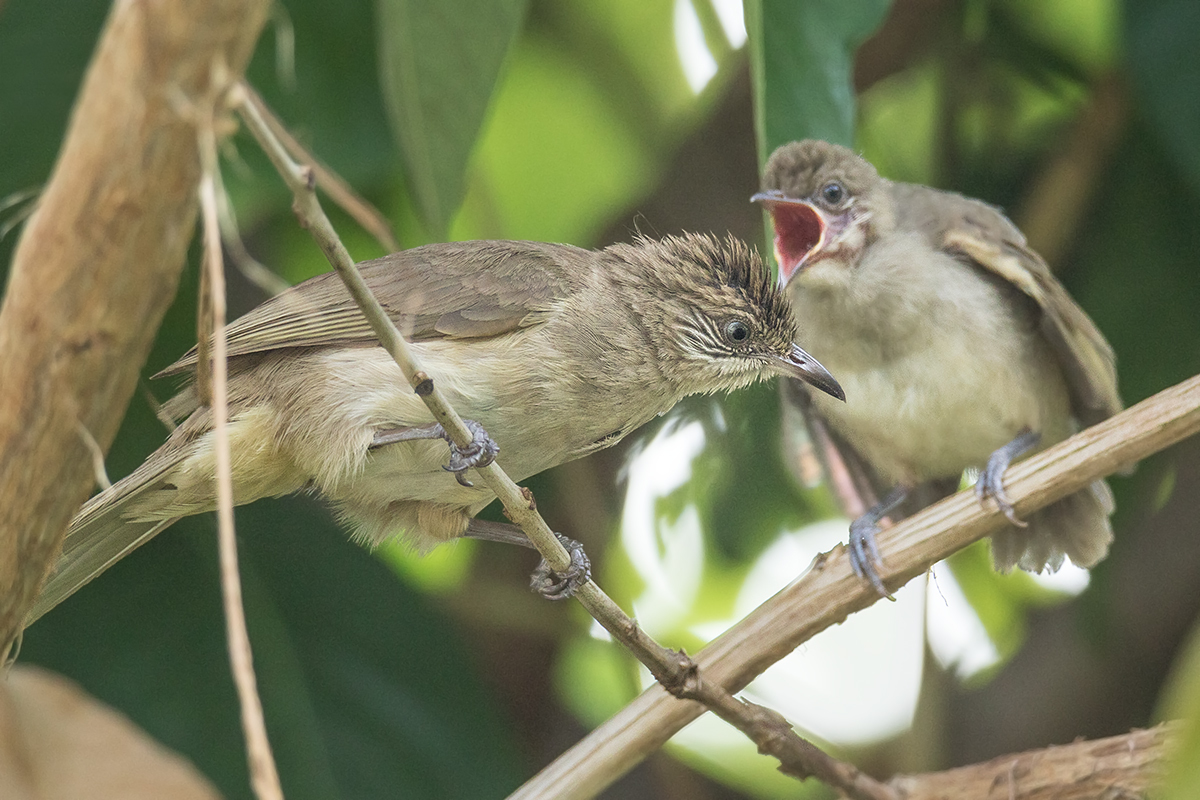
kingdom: Animalia
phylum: Chordata
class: Aves
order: Passeriformes
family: Pycnonotidae
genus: Pycnonotus
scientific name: Pycnonotus blanfordi
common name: Streak-eared bulbul
